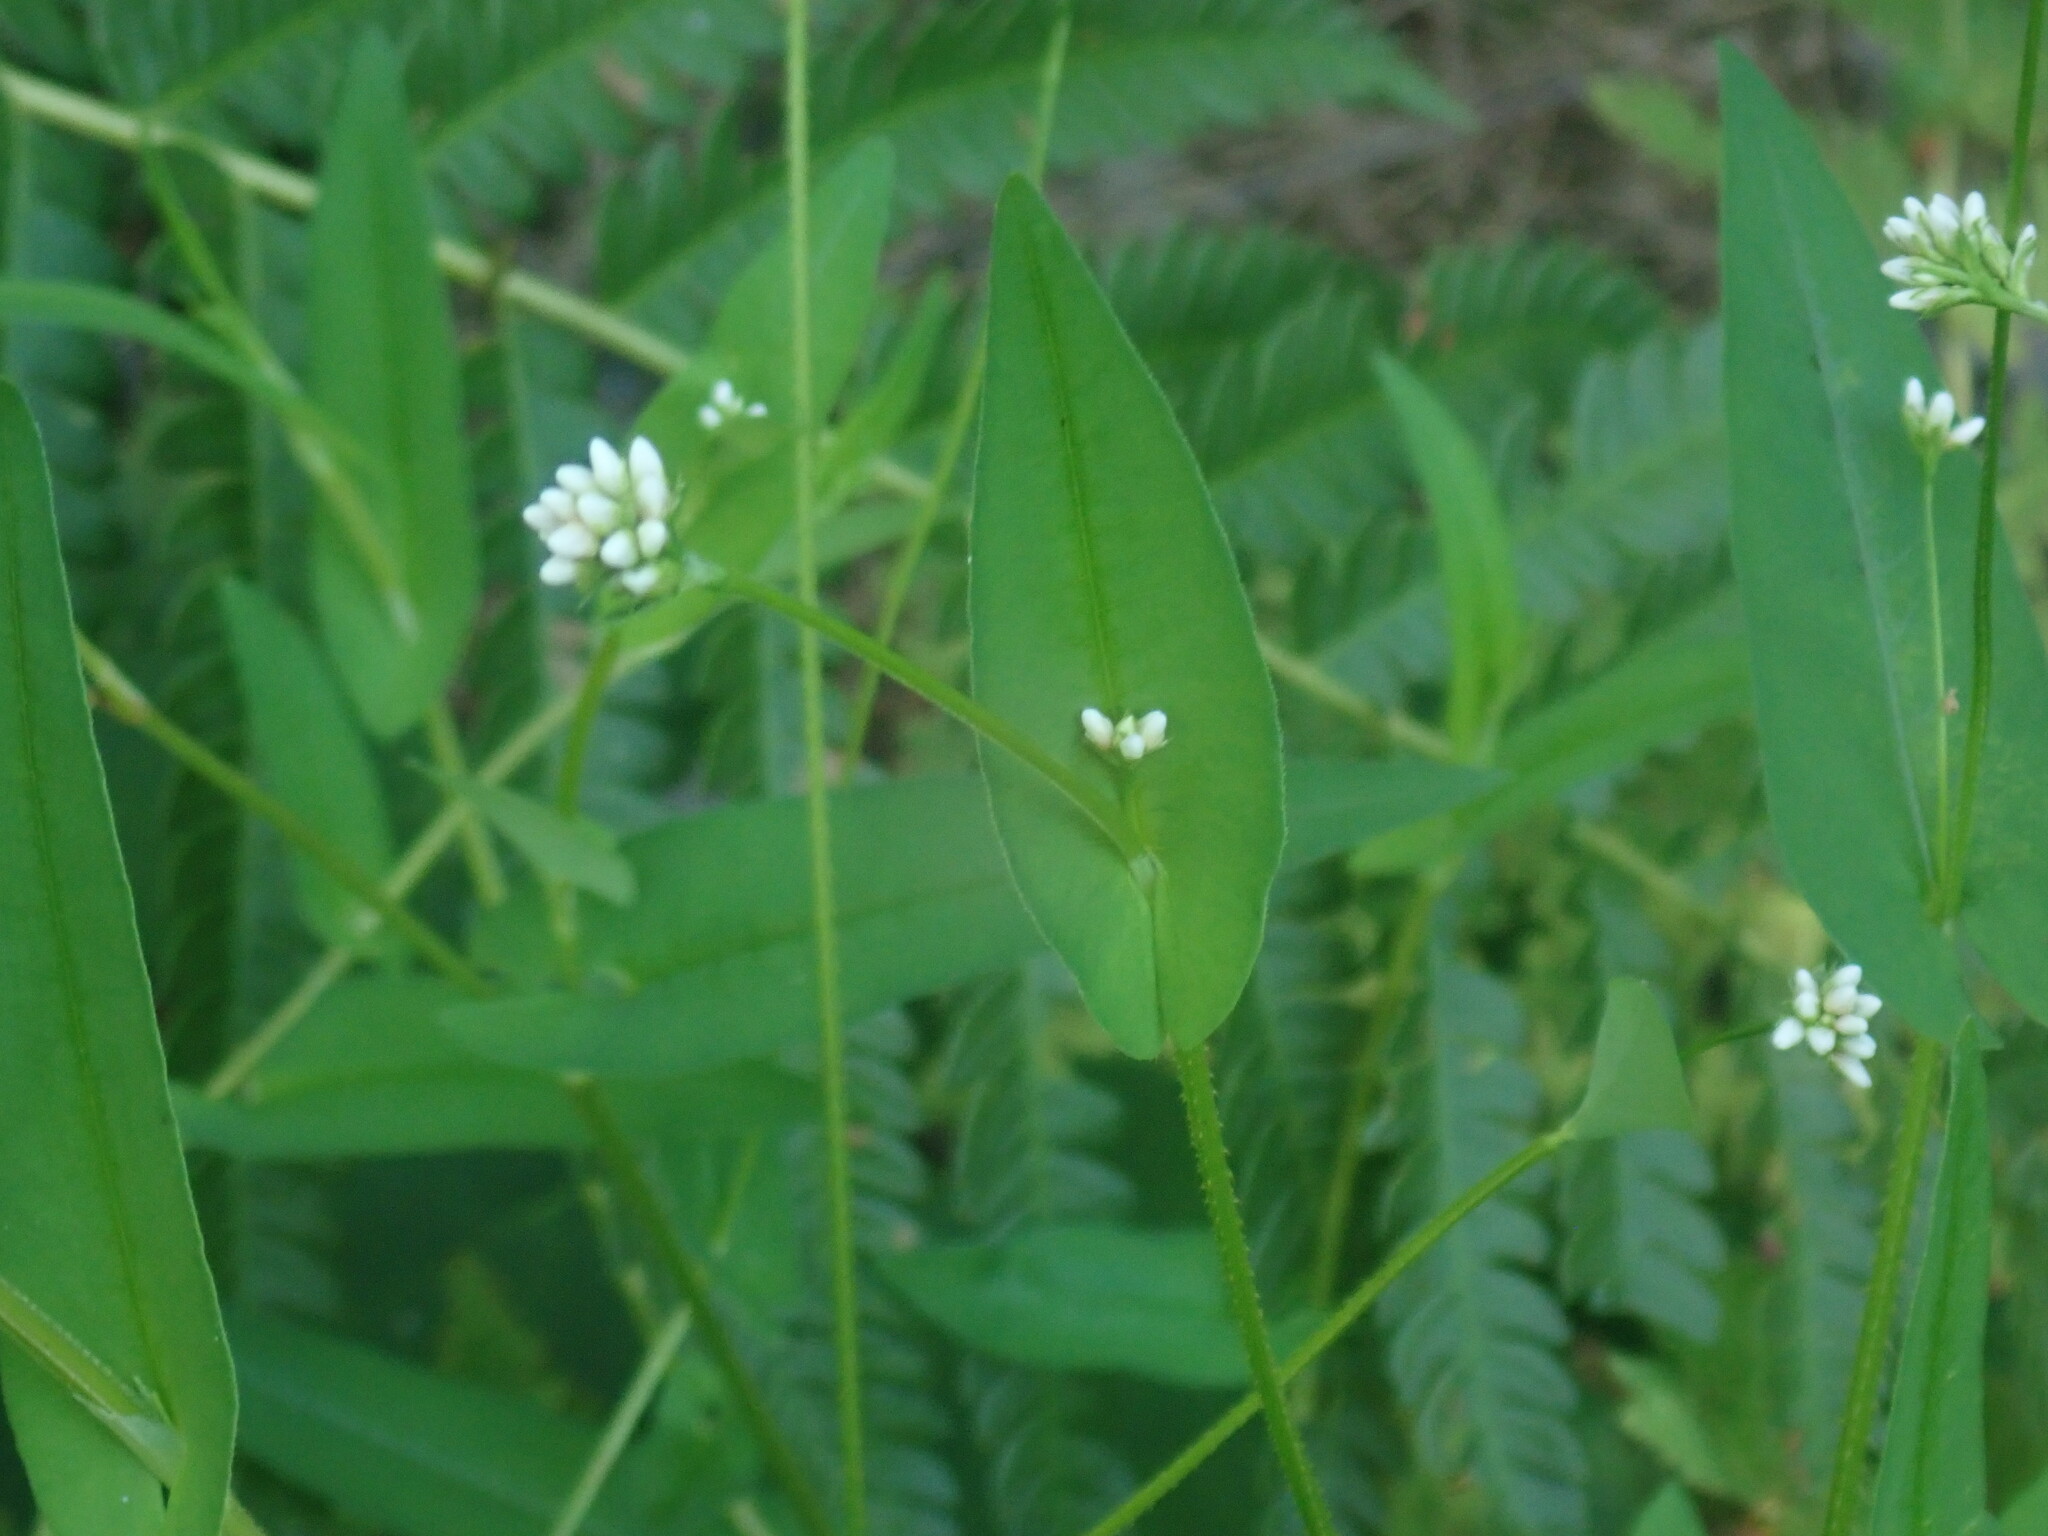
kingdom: Plantae
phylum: Tracheophyta
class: Magnoliopsida
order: Caryophyllales
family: Polygonaceae
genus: Persicaria
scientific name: Persicaria sagittata
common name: American tearthumb
